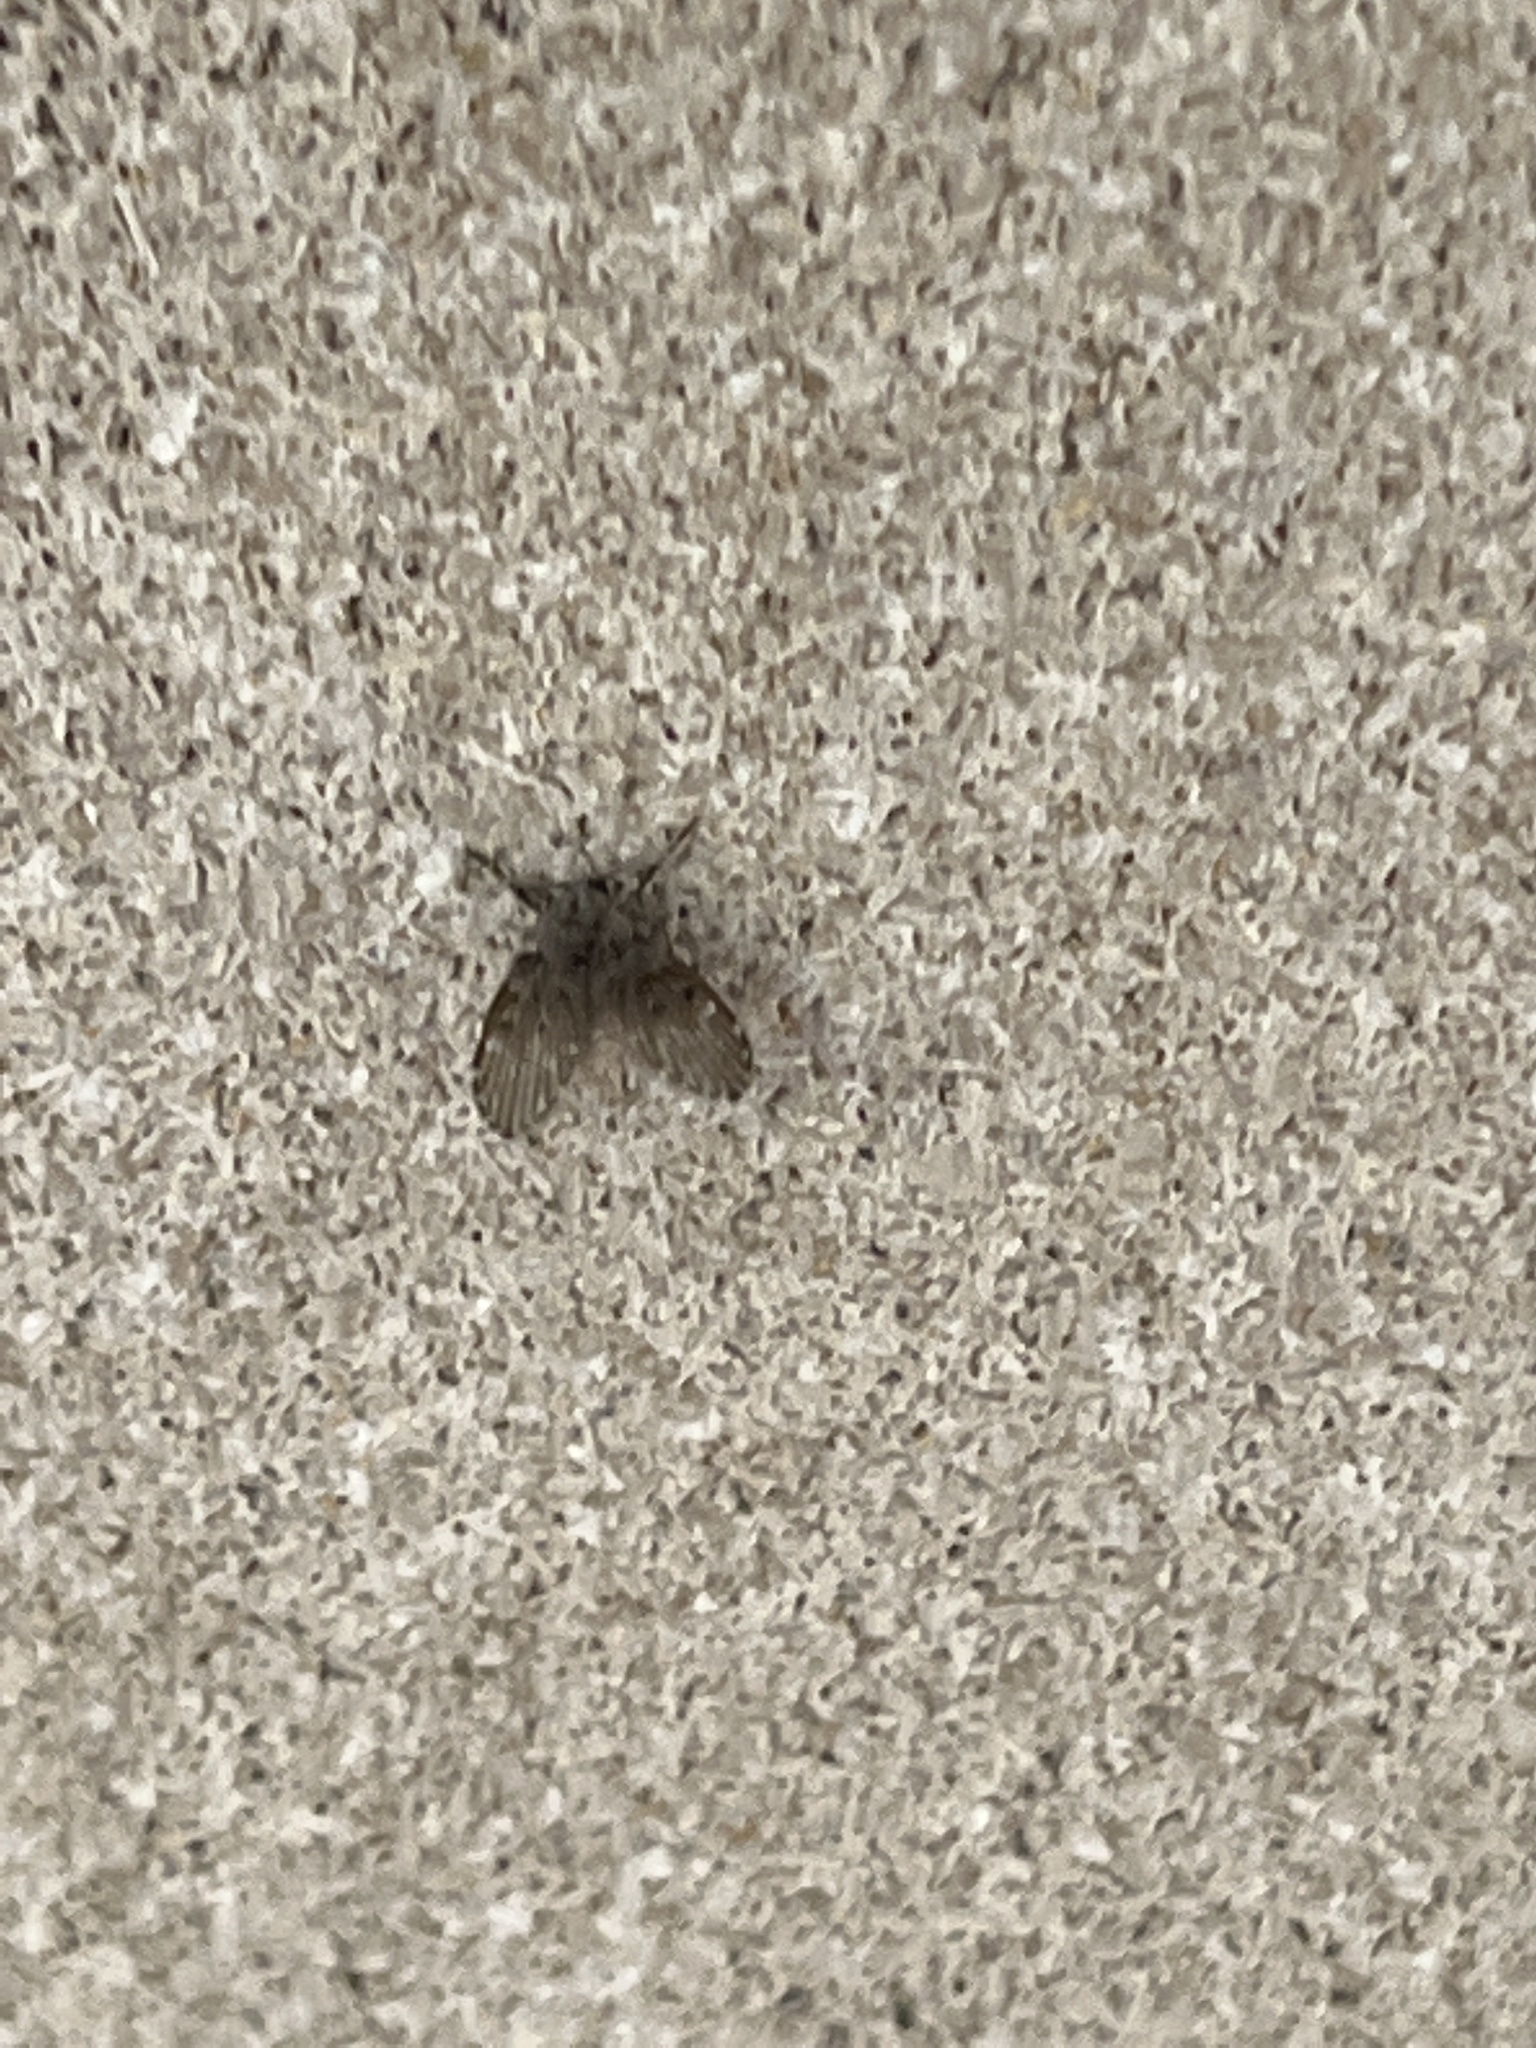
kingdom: Animalia
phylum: Arthropoda
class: Insecta
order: Diptera
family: Psychodidae
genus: Clogmia
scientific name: Clogmia albipunctatus
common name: White-spotted moth fly
